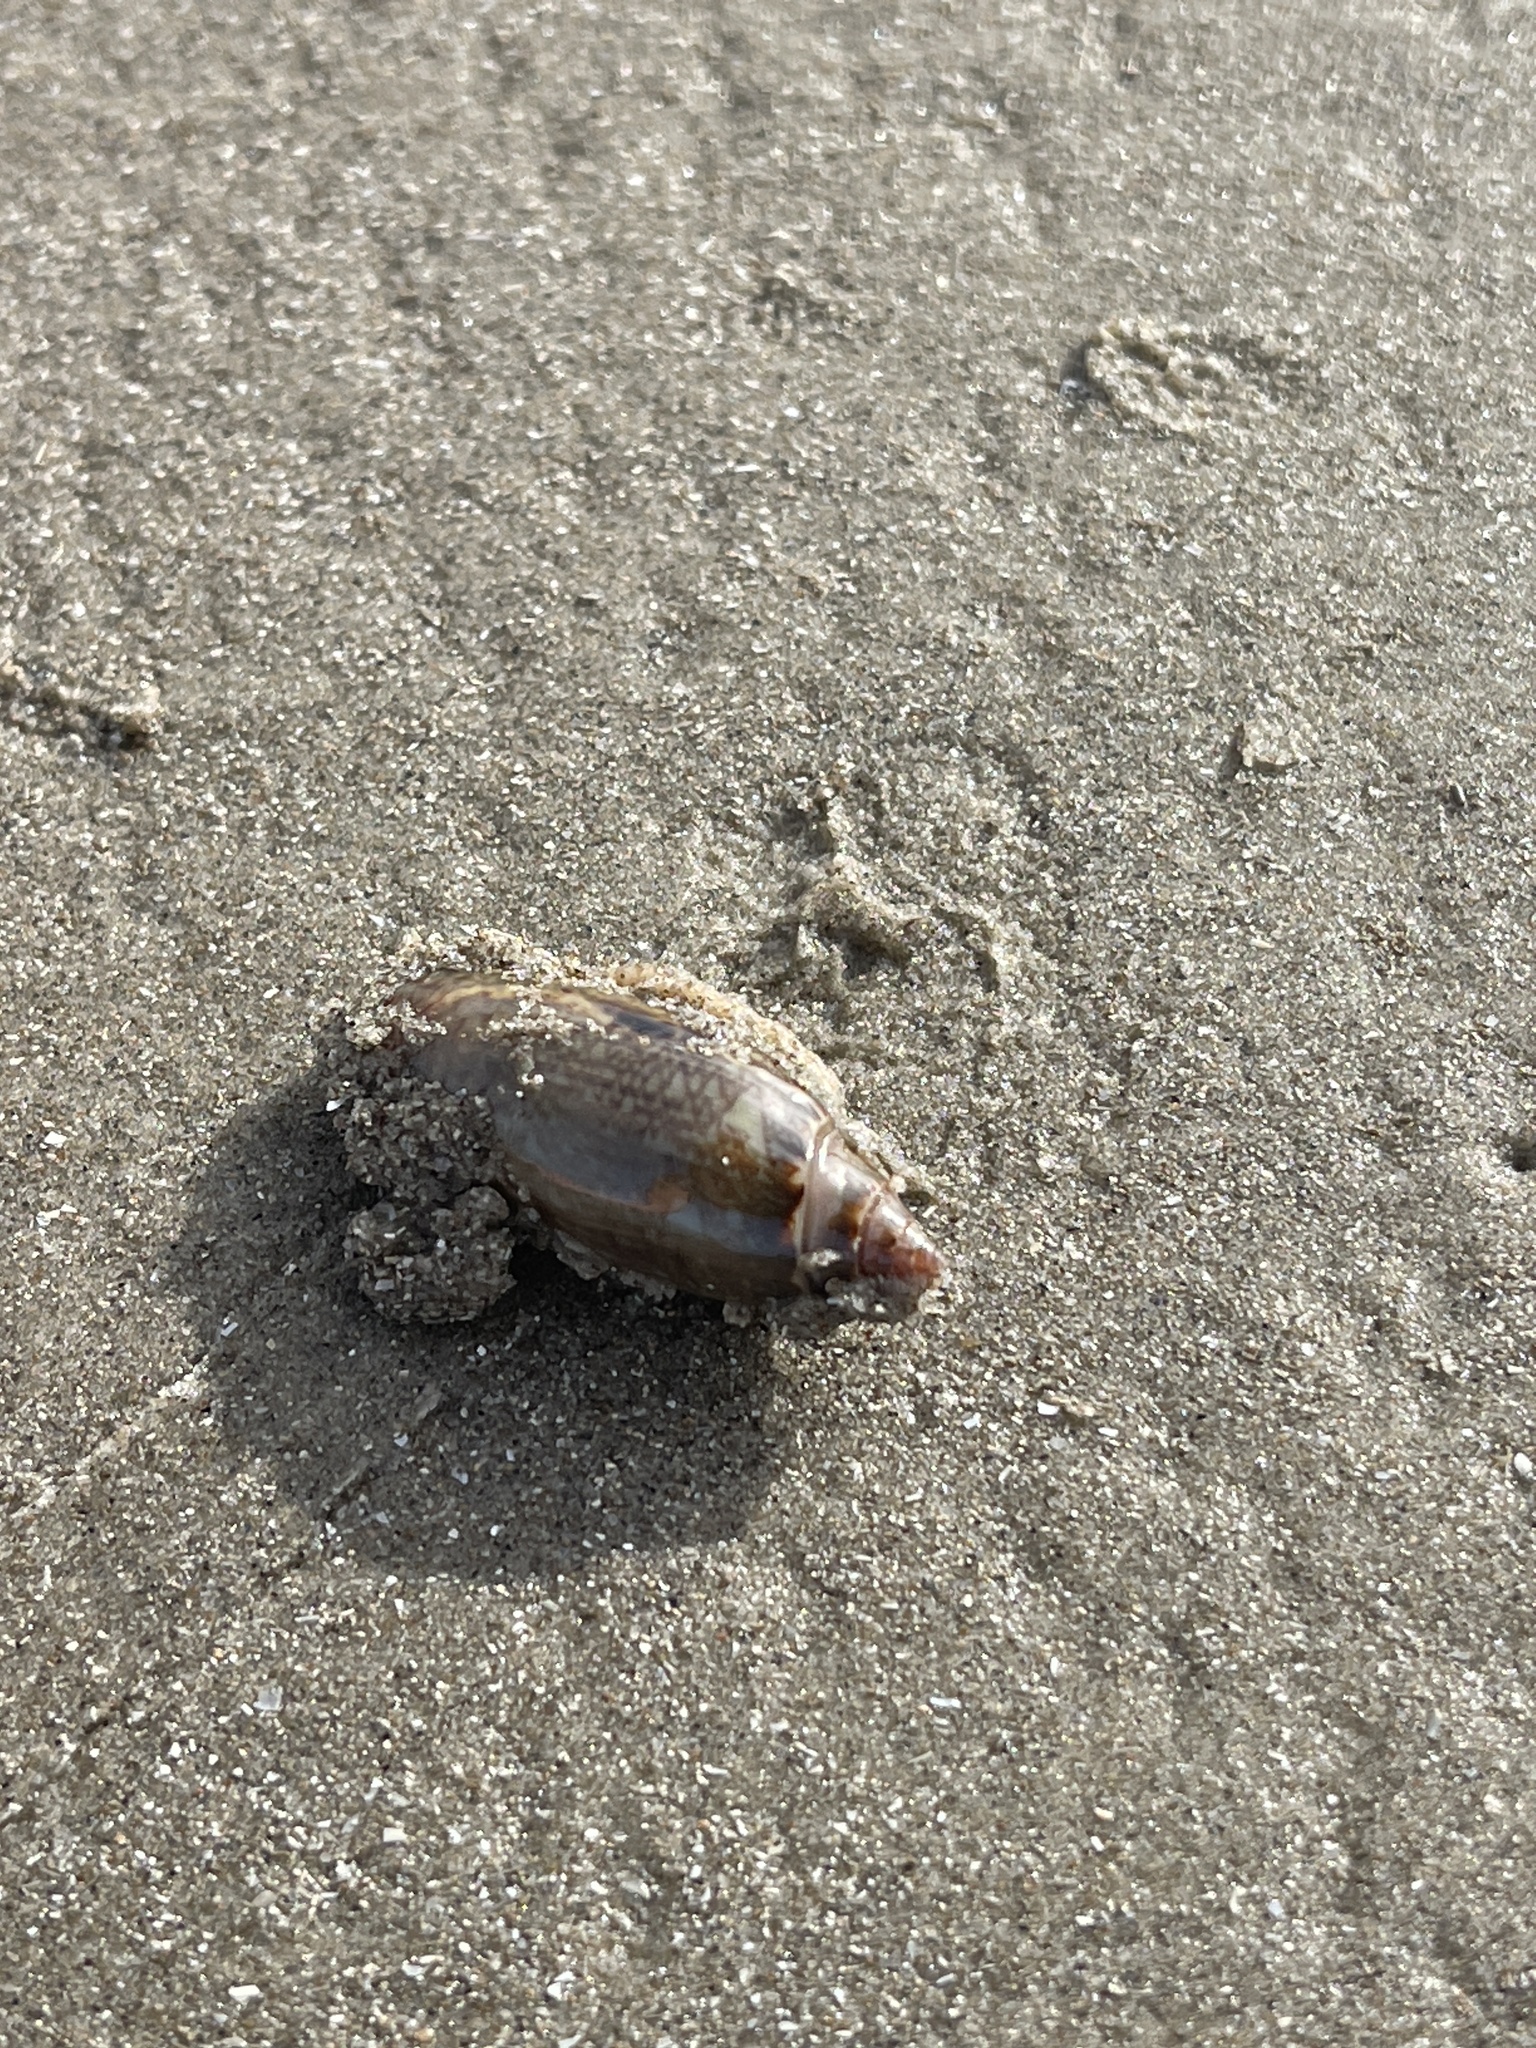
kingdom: Animalia
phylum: Mollusca
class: Gastropoda
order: Neogastropoda
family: Olividae
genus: Oliva
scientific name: Oliva sayana
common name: Lettered olive
